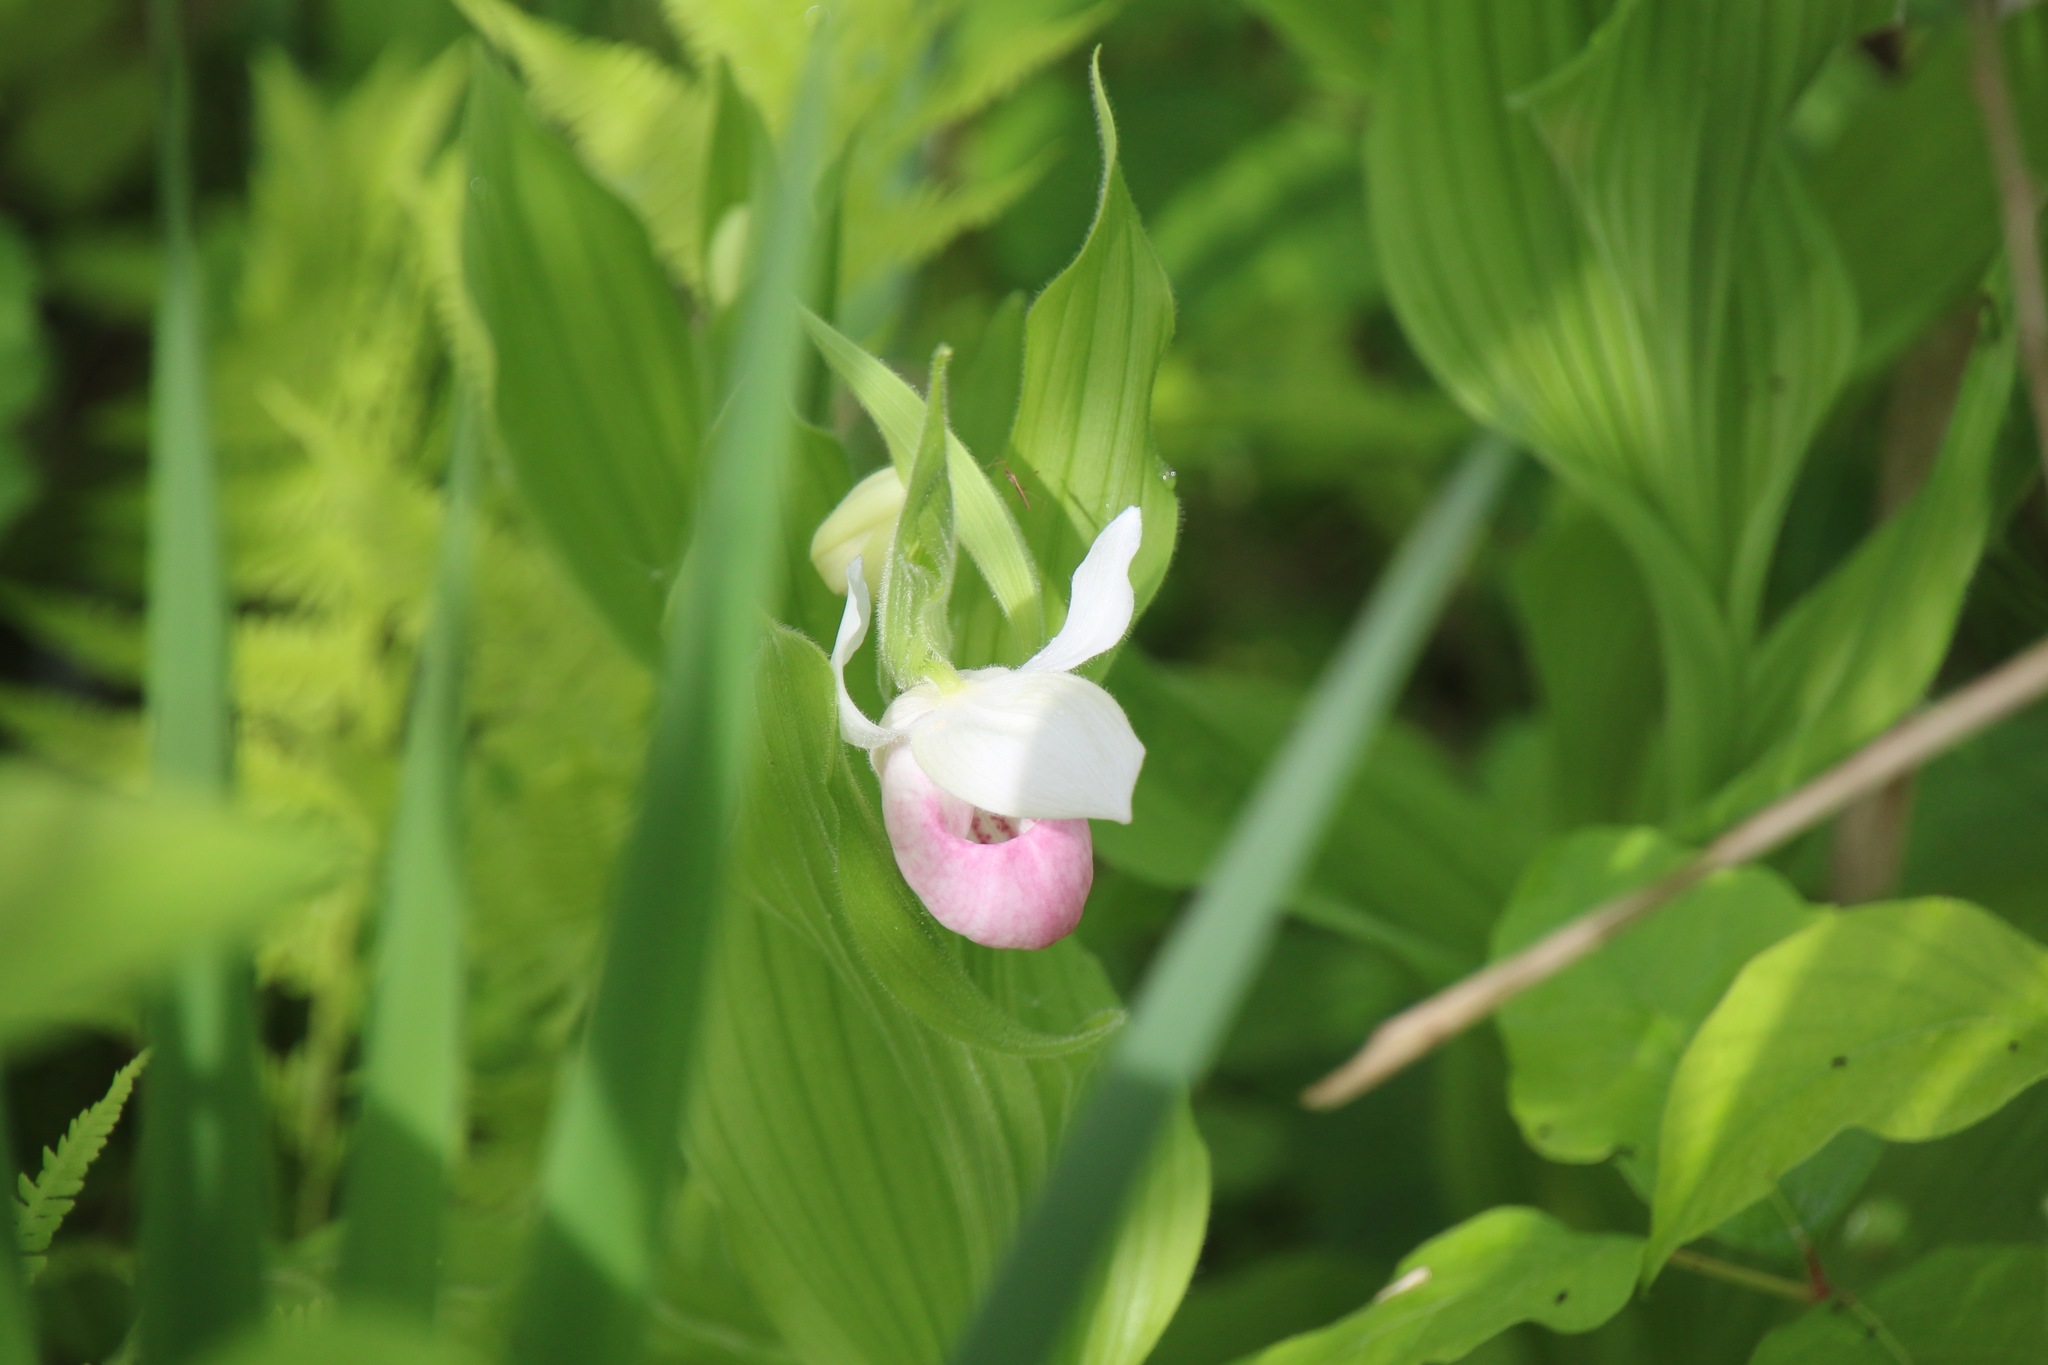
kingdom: Plantae
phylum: Tracheophyta
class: Liliopsida
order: Asparagales
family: Orchidaceae
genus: Cypripedium
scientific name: Cypripedium reginae
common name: Queen lady's-slipper
